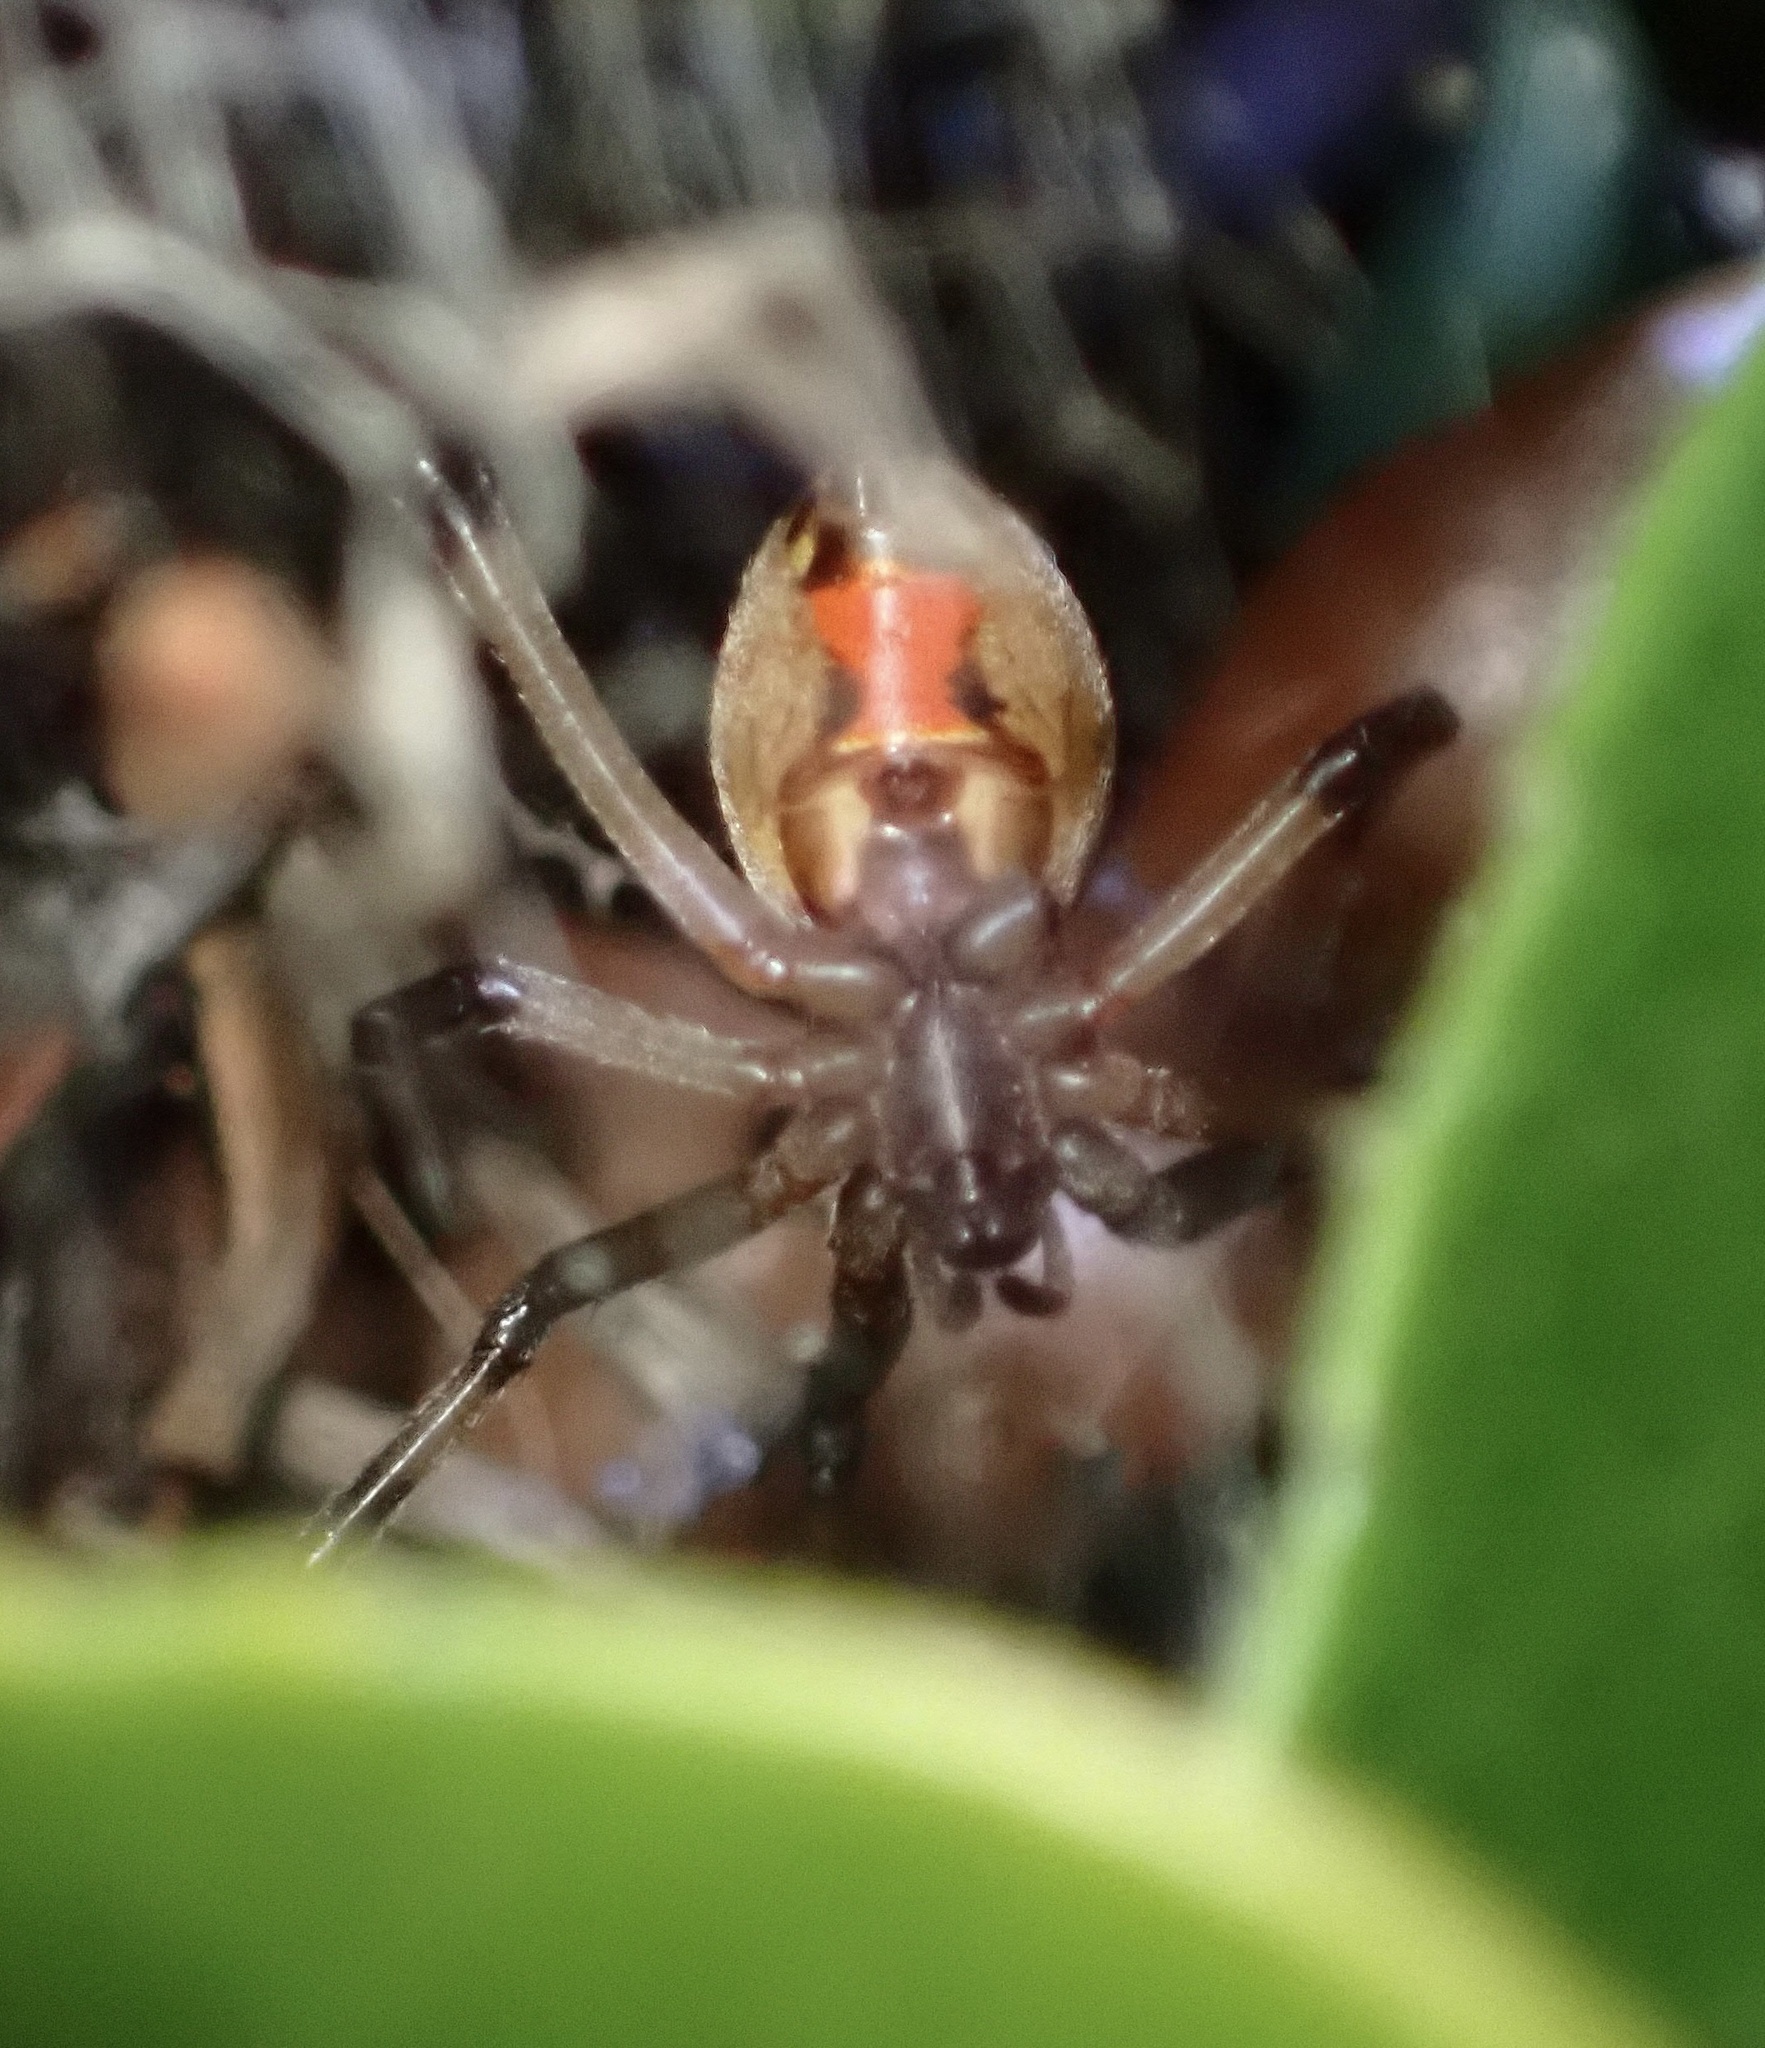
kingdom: Animalia
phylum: Arthropoda
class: Arachnida
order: Araneae
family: Theridiidae
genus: Latrodectus
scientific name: Latrodectus geometricus
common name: Brown widow spider
